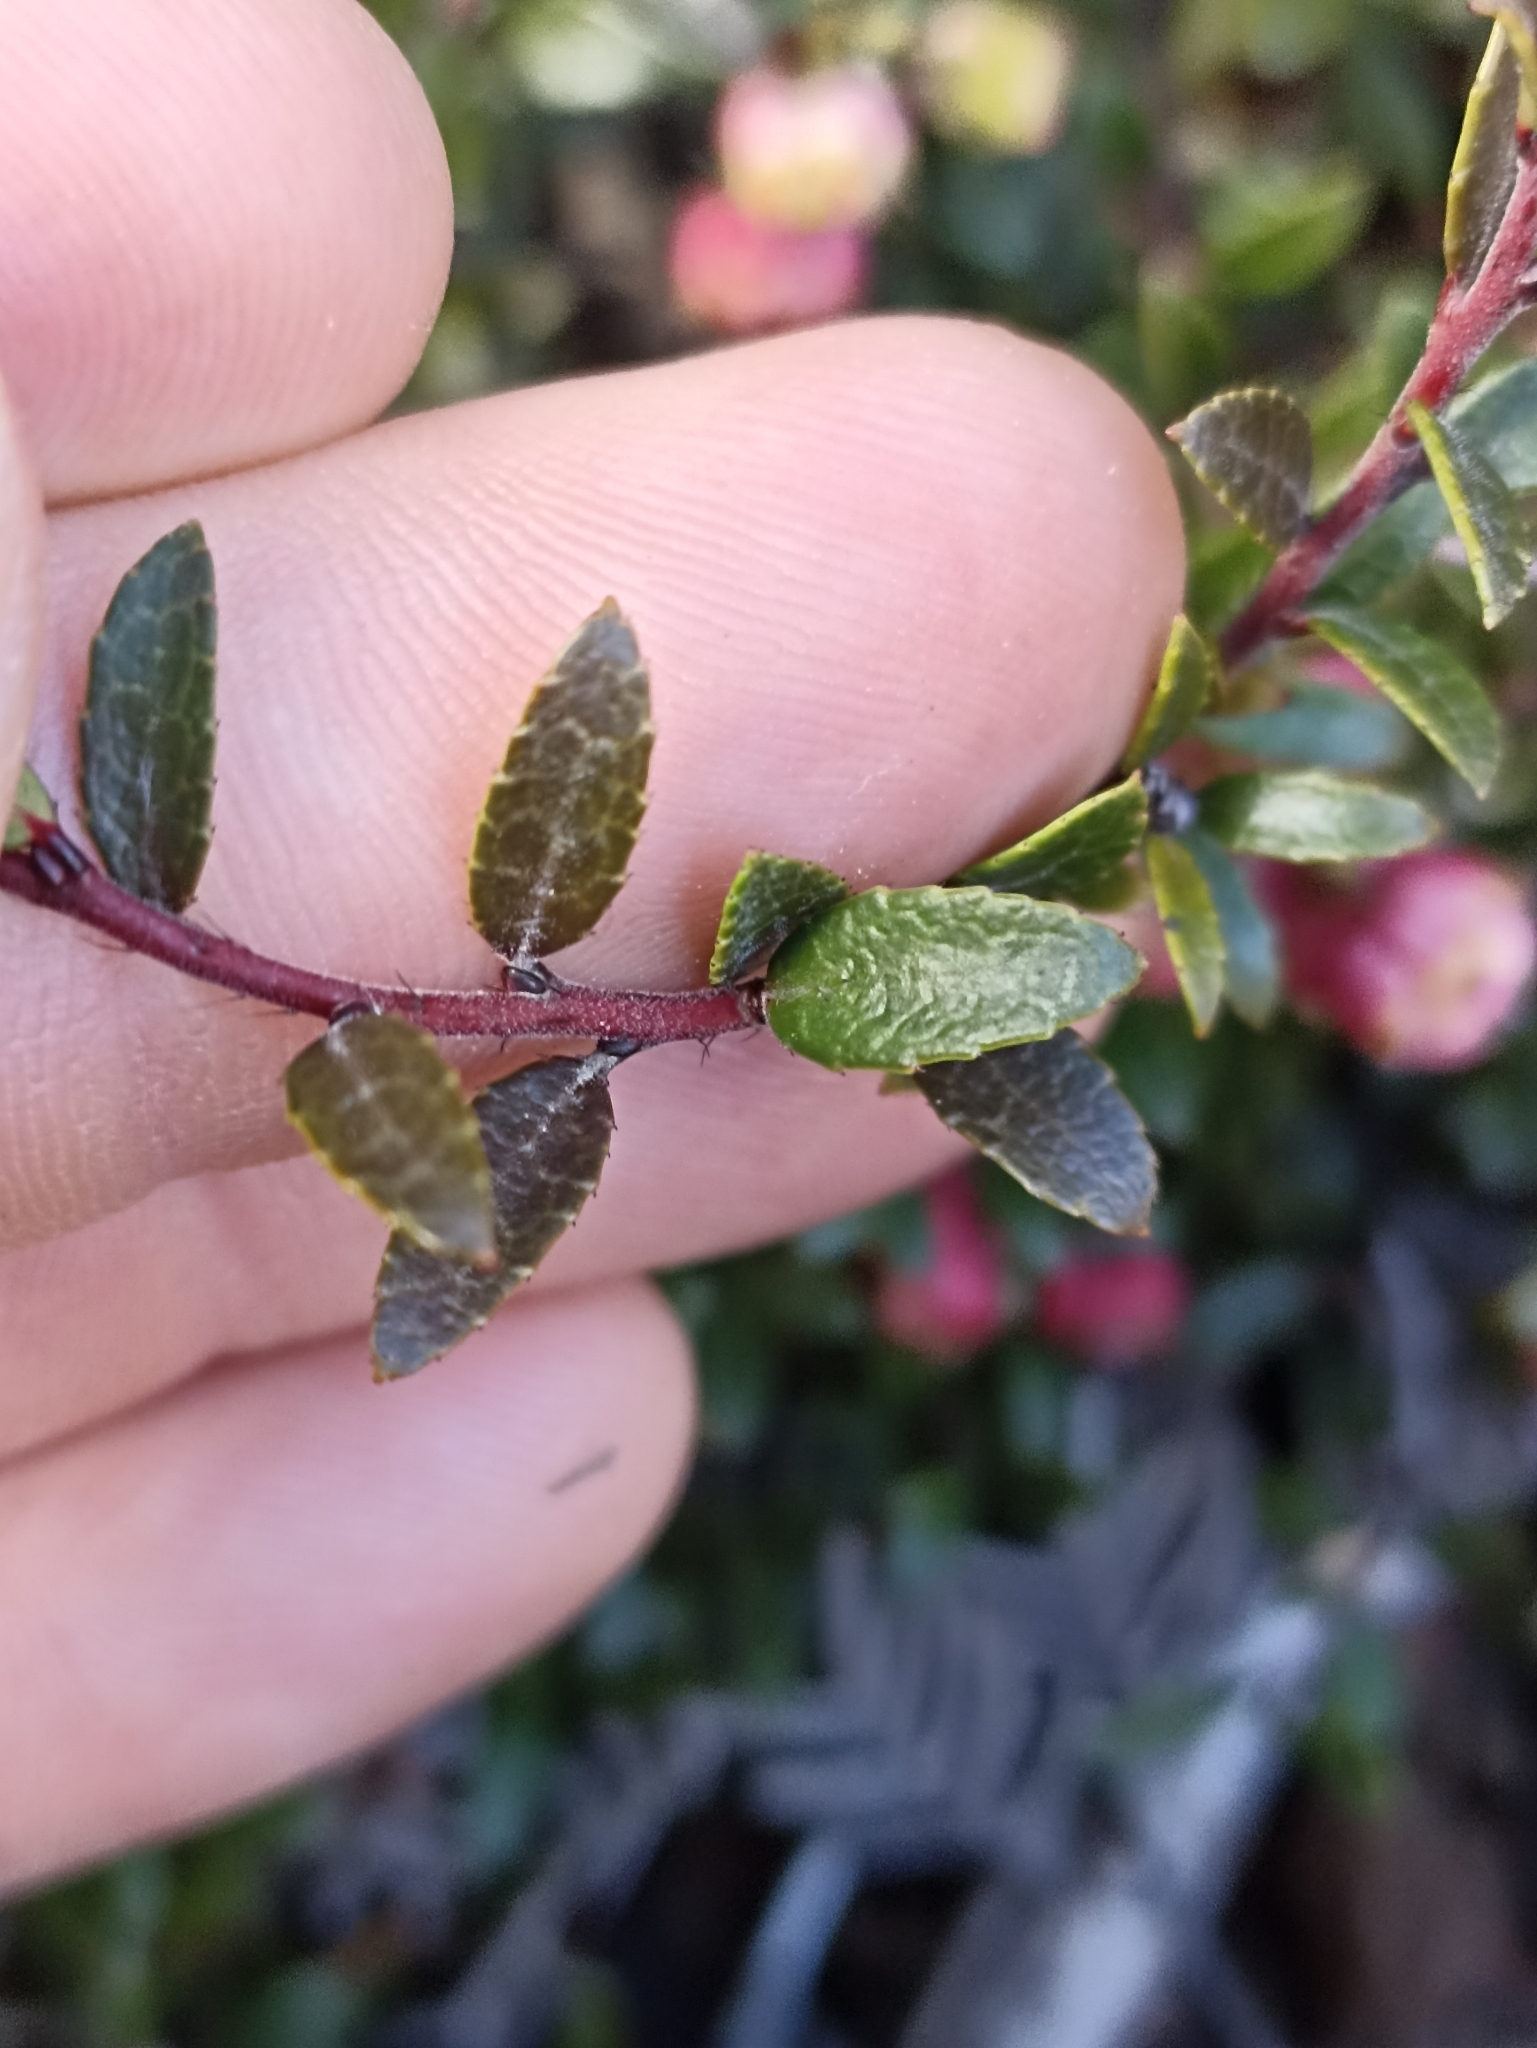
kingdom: Plantae
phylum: Tracheophyta
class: Magnoliopsida
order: Ericales
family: Ericaceae
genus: Gaultheria
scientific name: Gaultheria macrostigma
